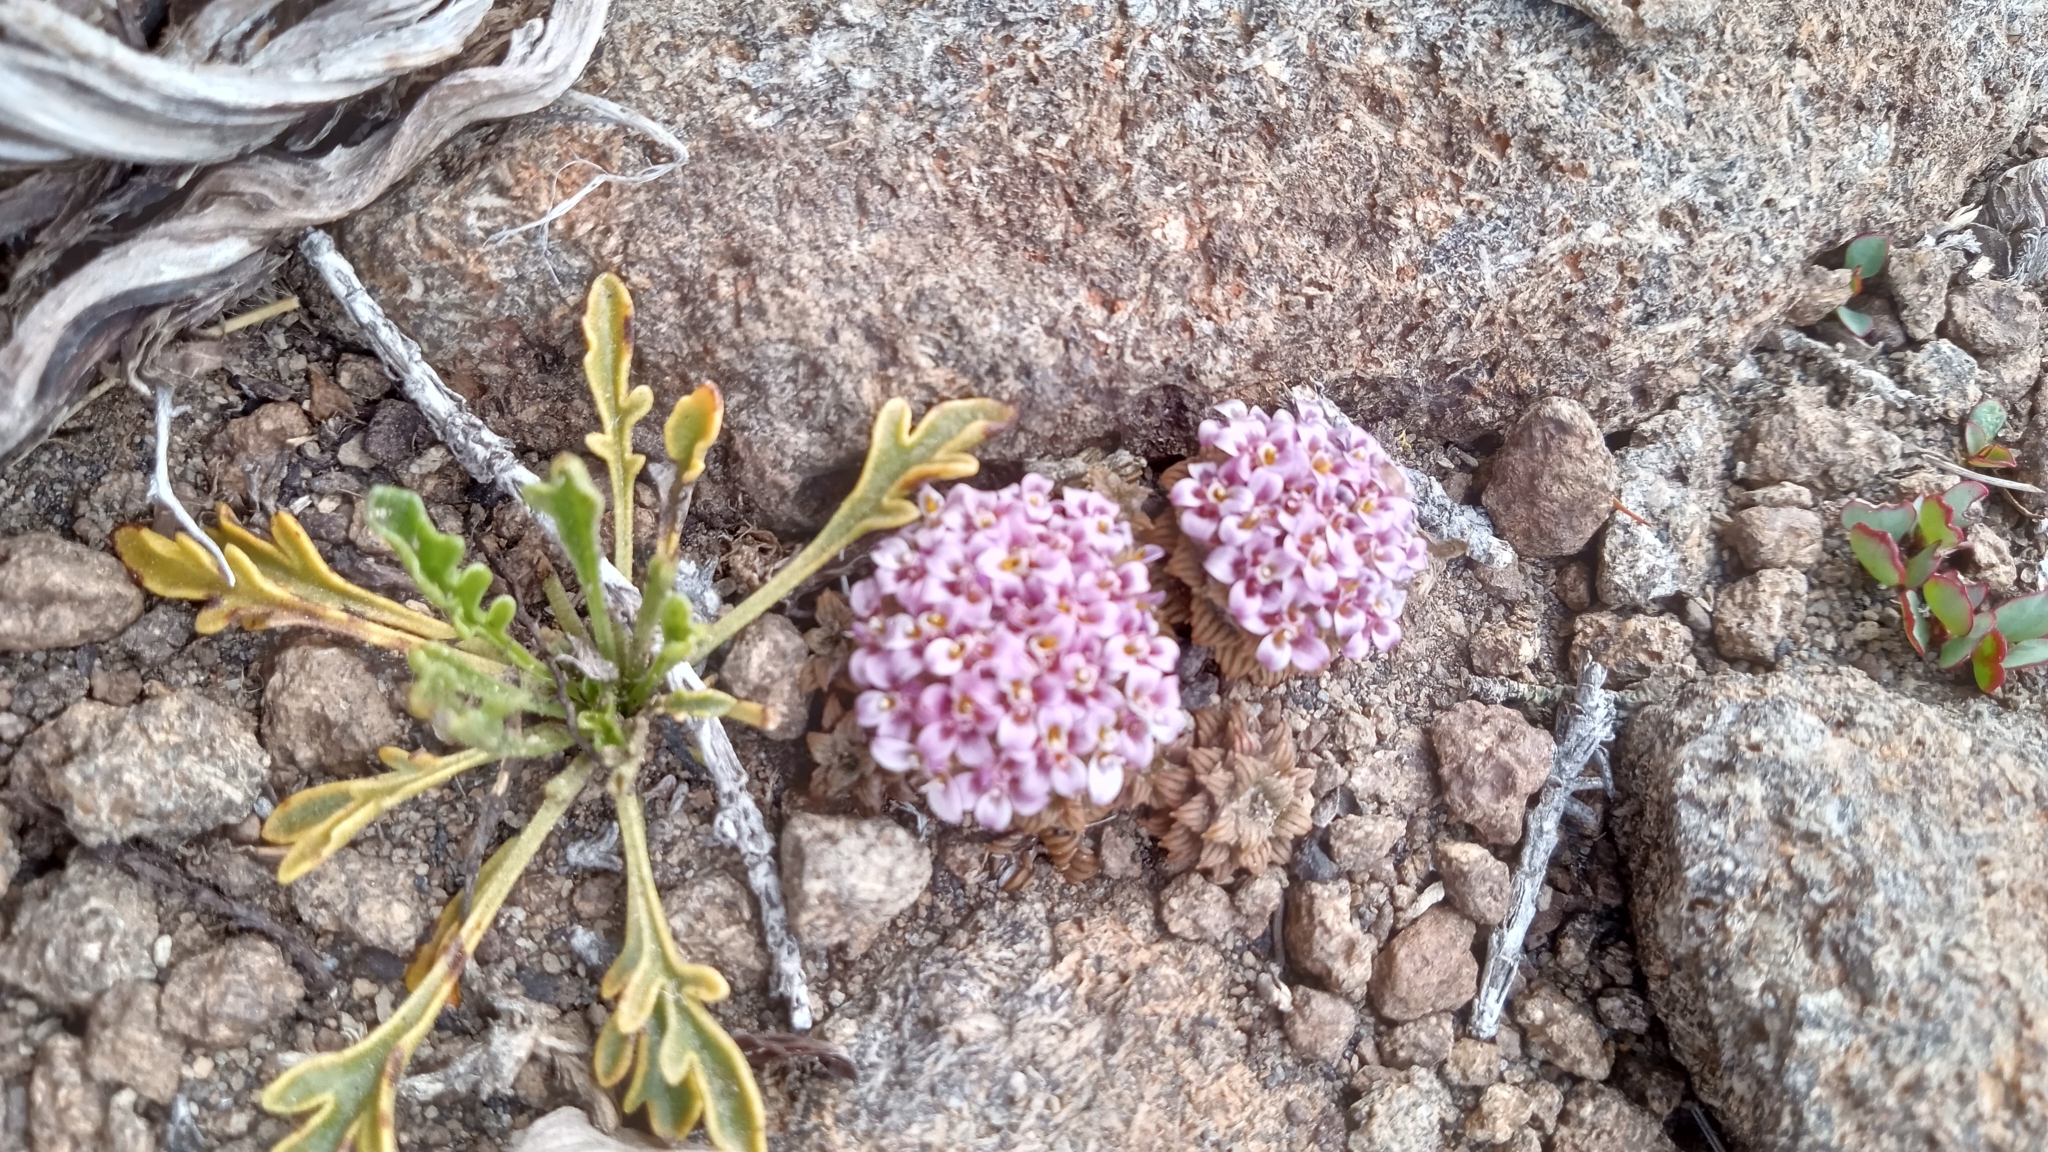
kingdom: Plantae
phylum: Tracheophyta
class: Magnoliopsida
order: Asterales
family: Asteraceae
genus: Nassauvia
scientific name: Nassauvia lagascae
